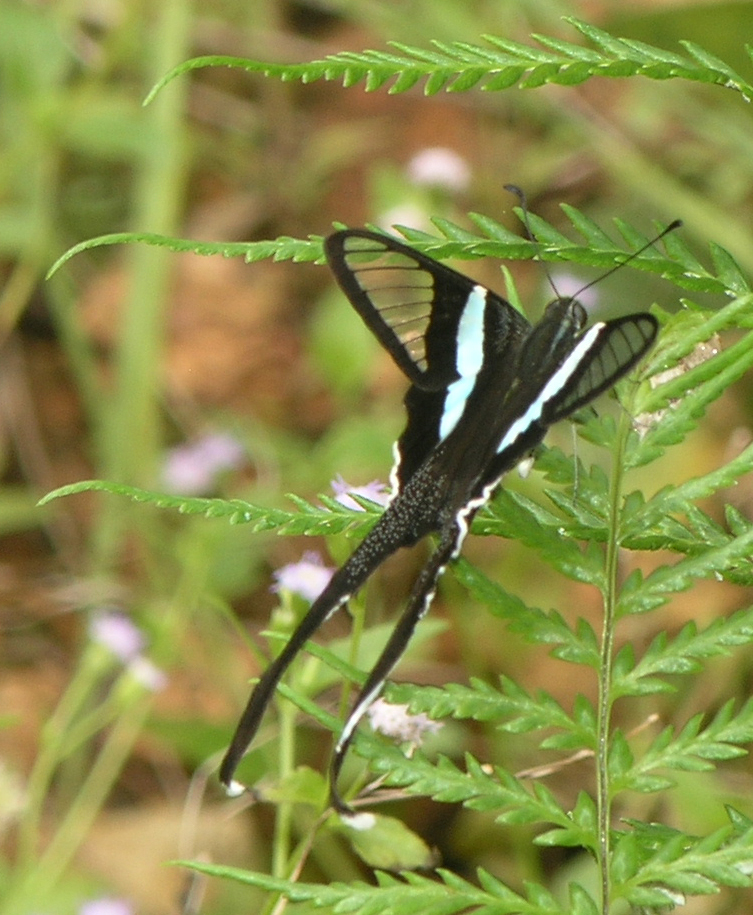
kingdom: Animalia
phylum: Arthropoda
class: Insecta
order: Lepidoptera
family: Papilionidae
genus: Lamproptera
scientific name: Lamproptera meges
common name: Green dragontail
